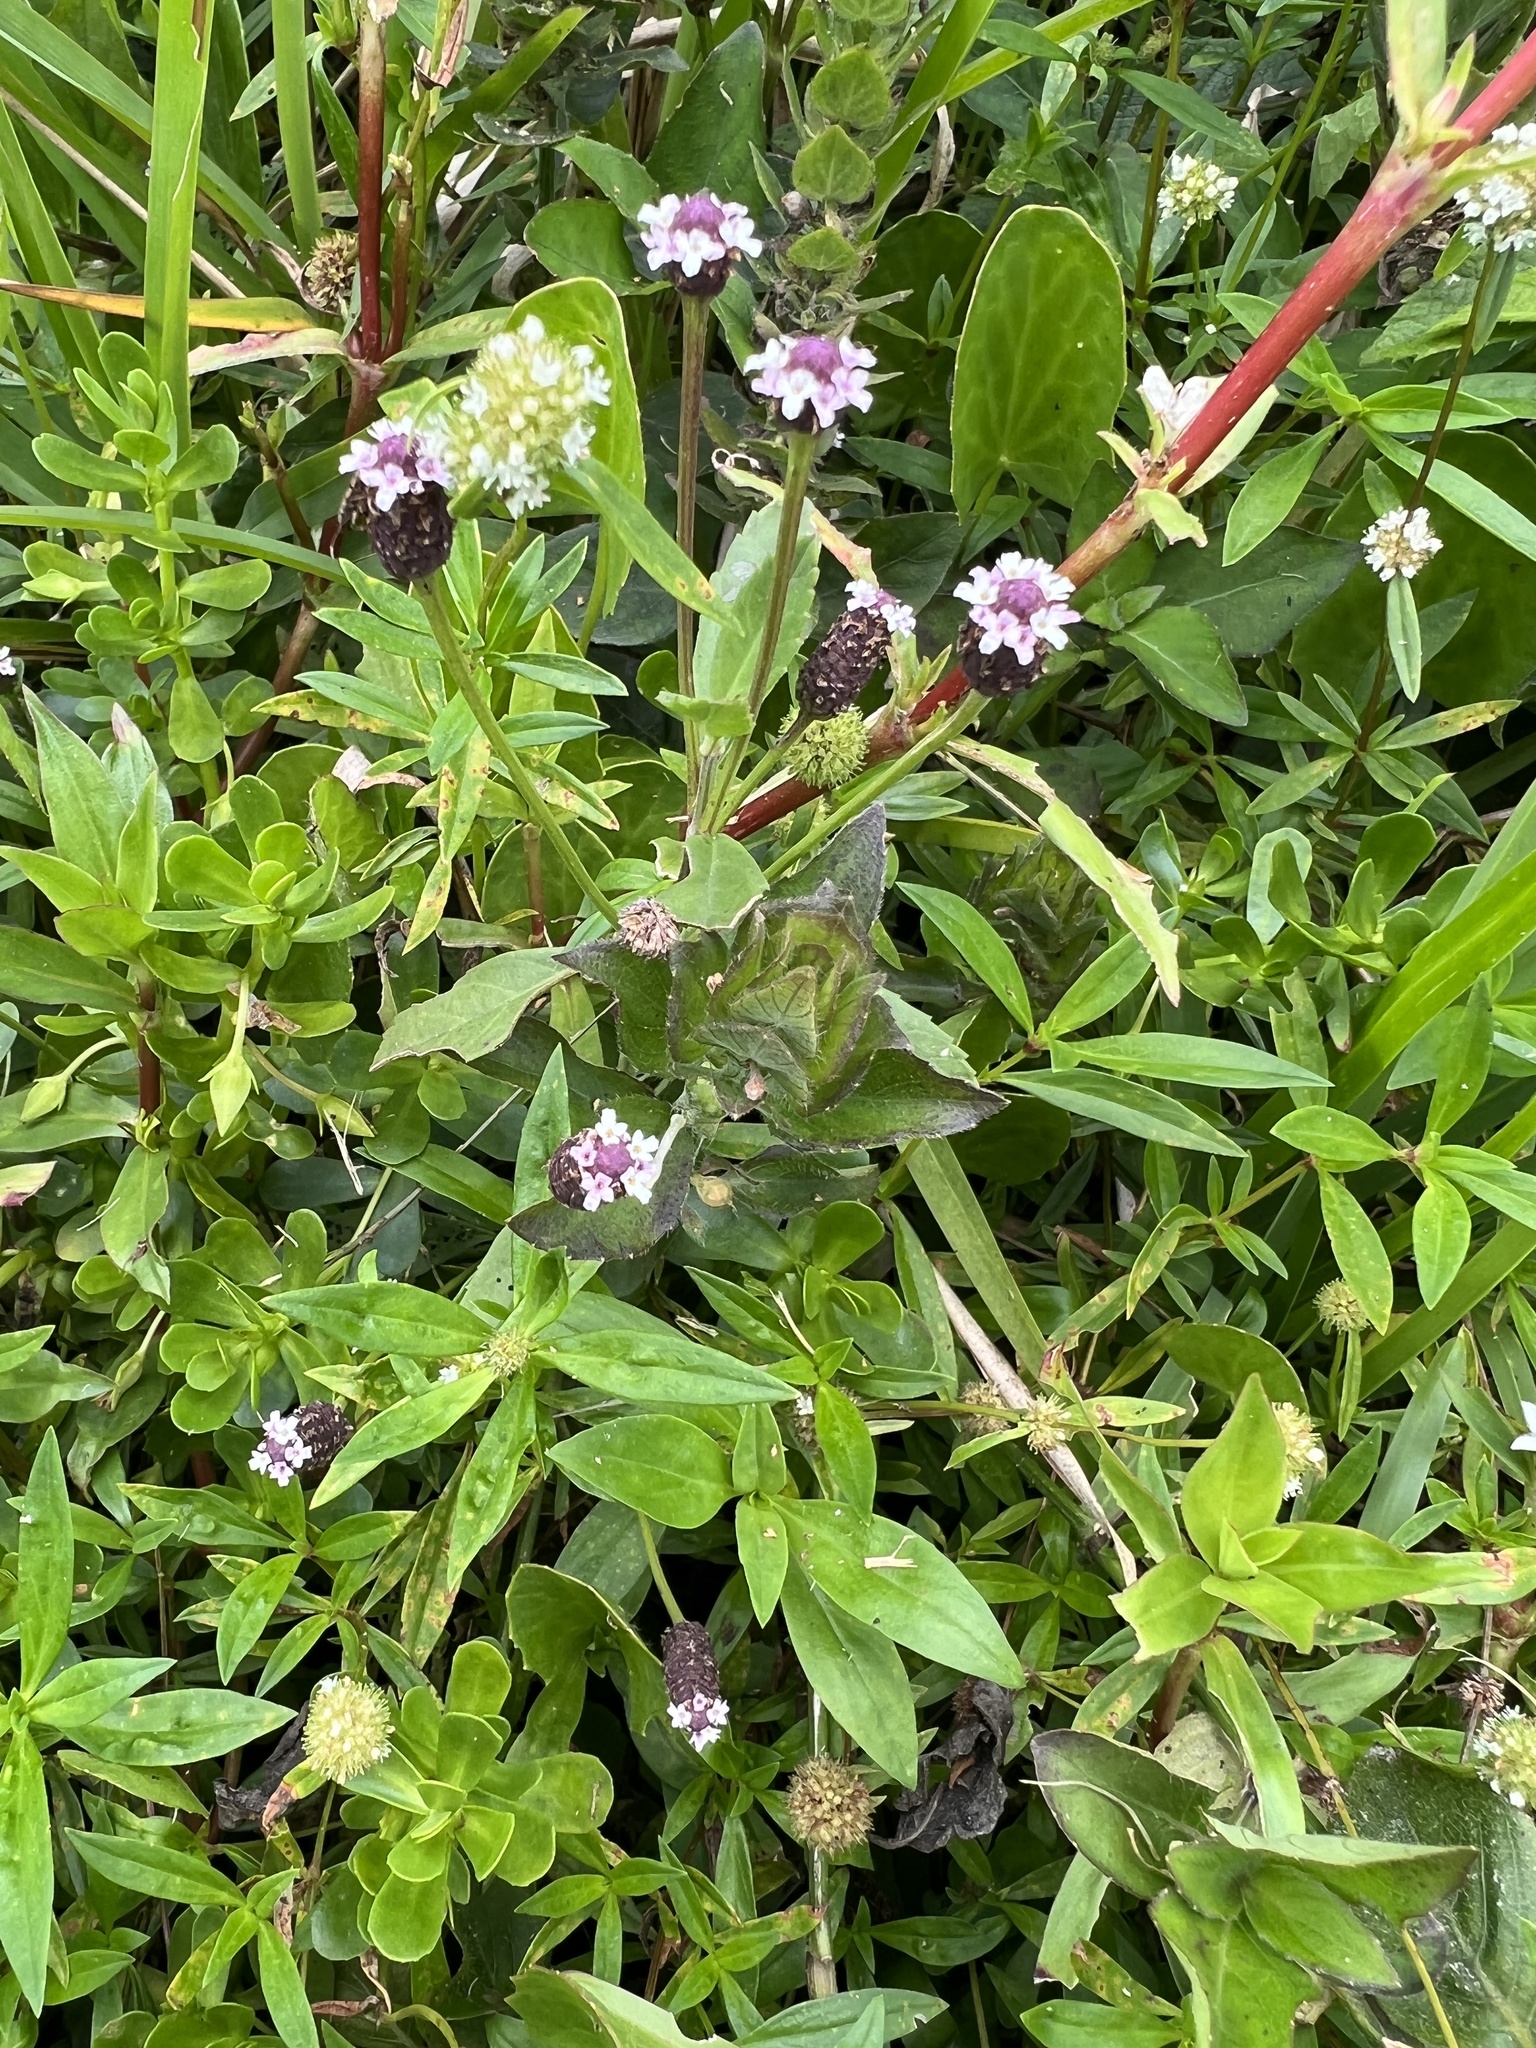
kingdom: Plantae
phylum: Tracheophyta
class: Magnoliopsida
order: Lamiales
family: Verbenaceae
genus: Phyla
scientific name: Phyla nodiflora
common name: Frogfruit
